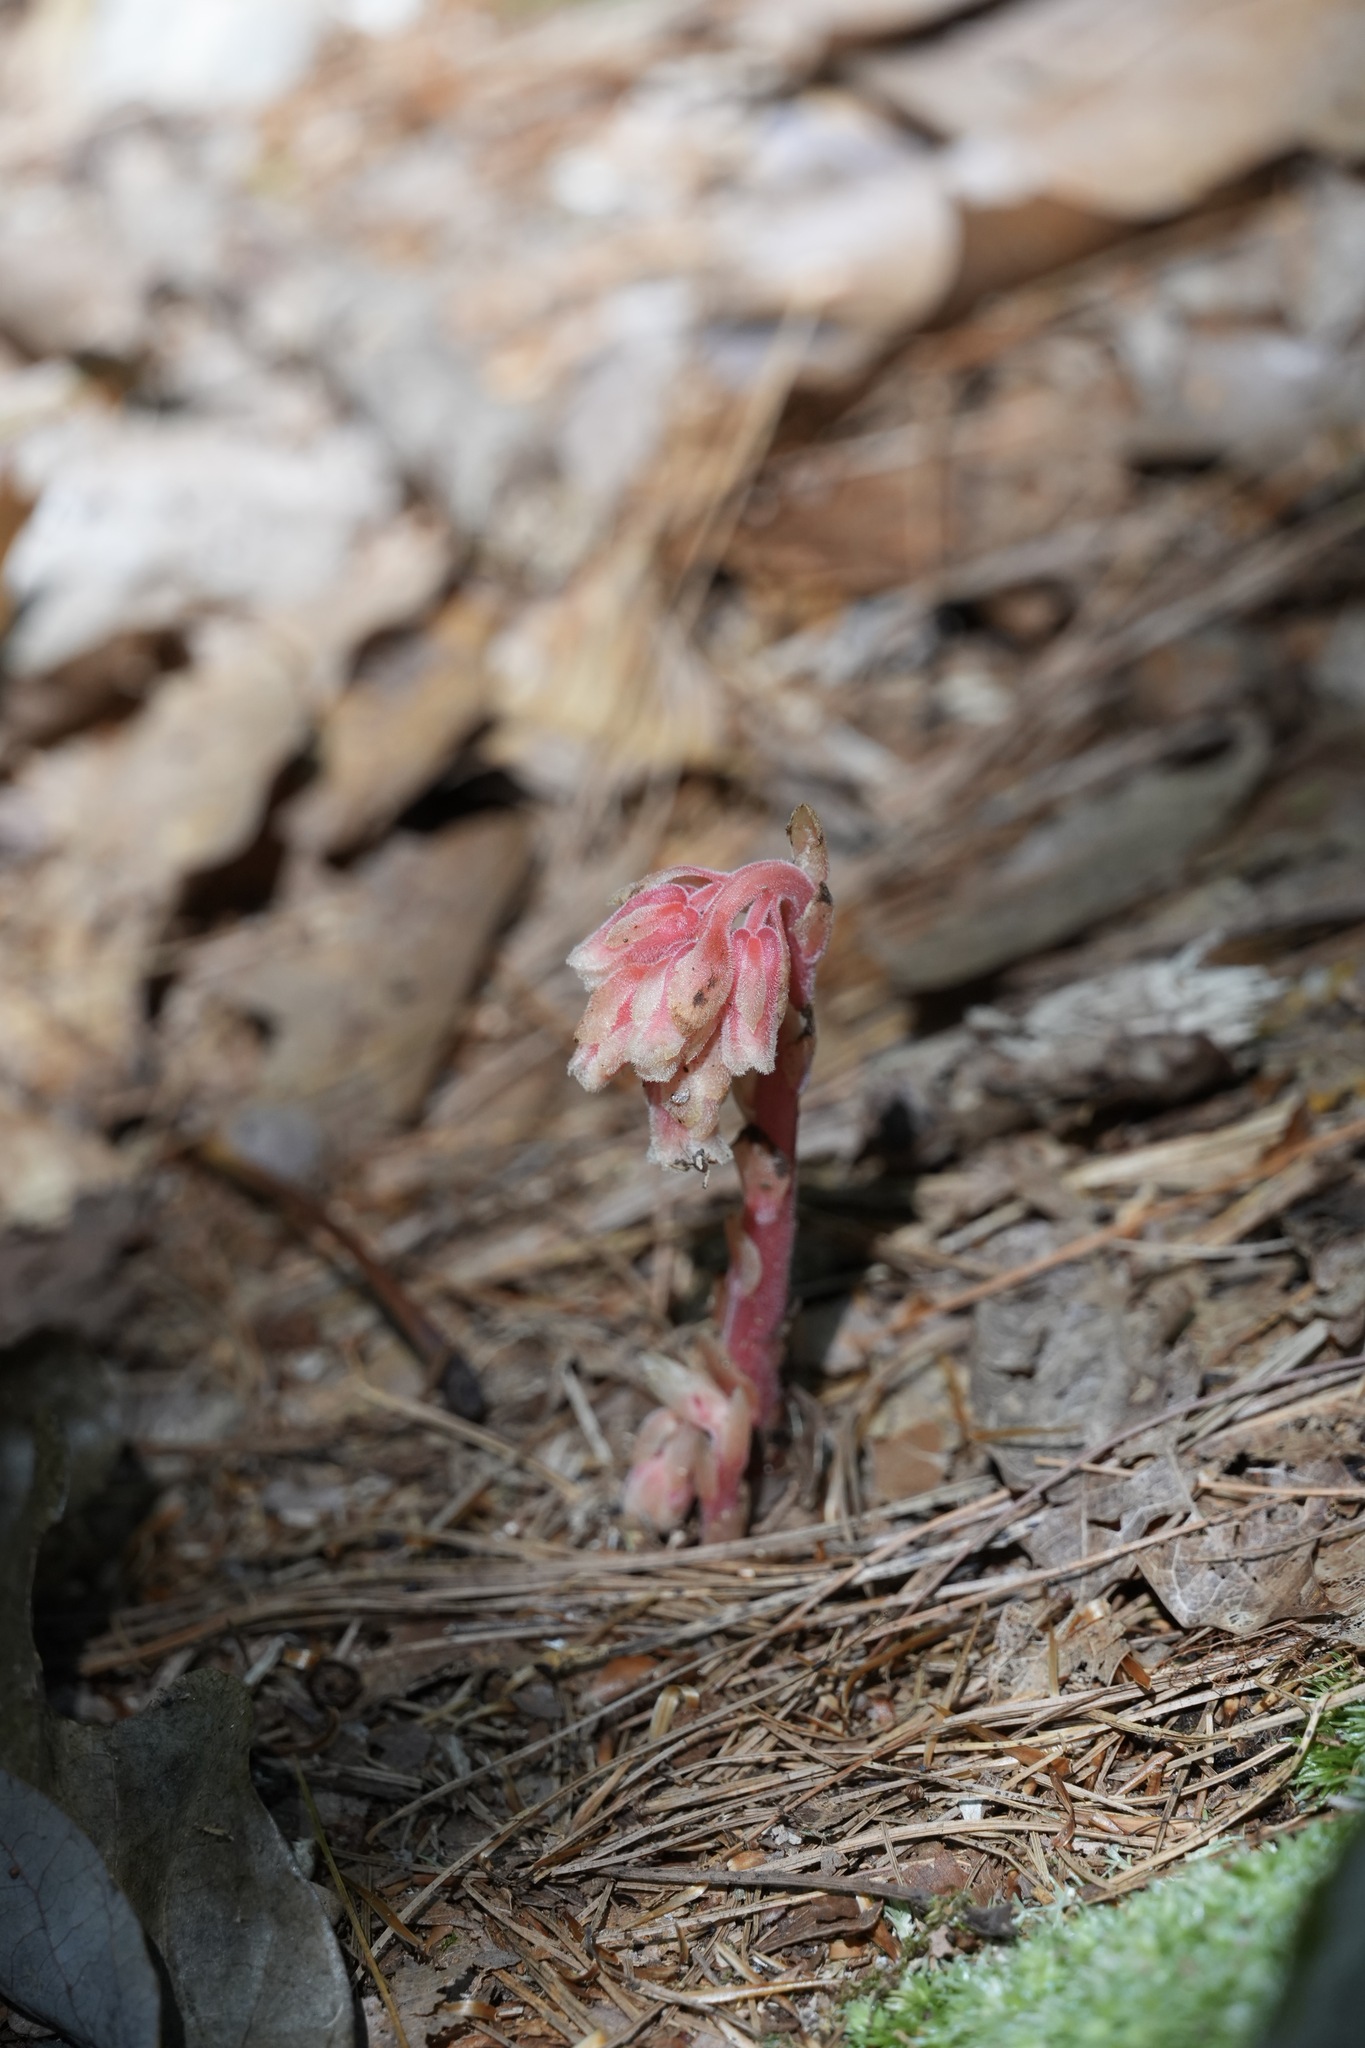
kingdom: Plantae
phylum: Tracheophyta
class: Magnoliopsida
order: Ericales
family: Ericaceae
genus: Hypopitys
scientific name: Hypopitys monotropa
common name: Yellow bird's-nest
